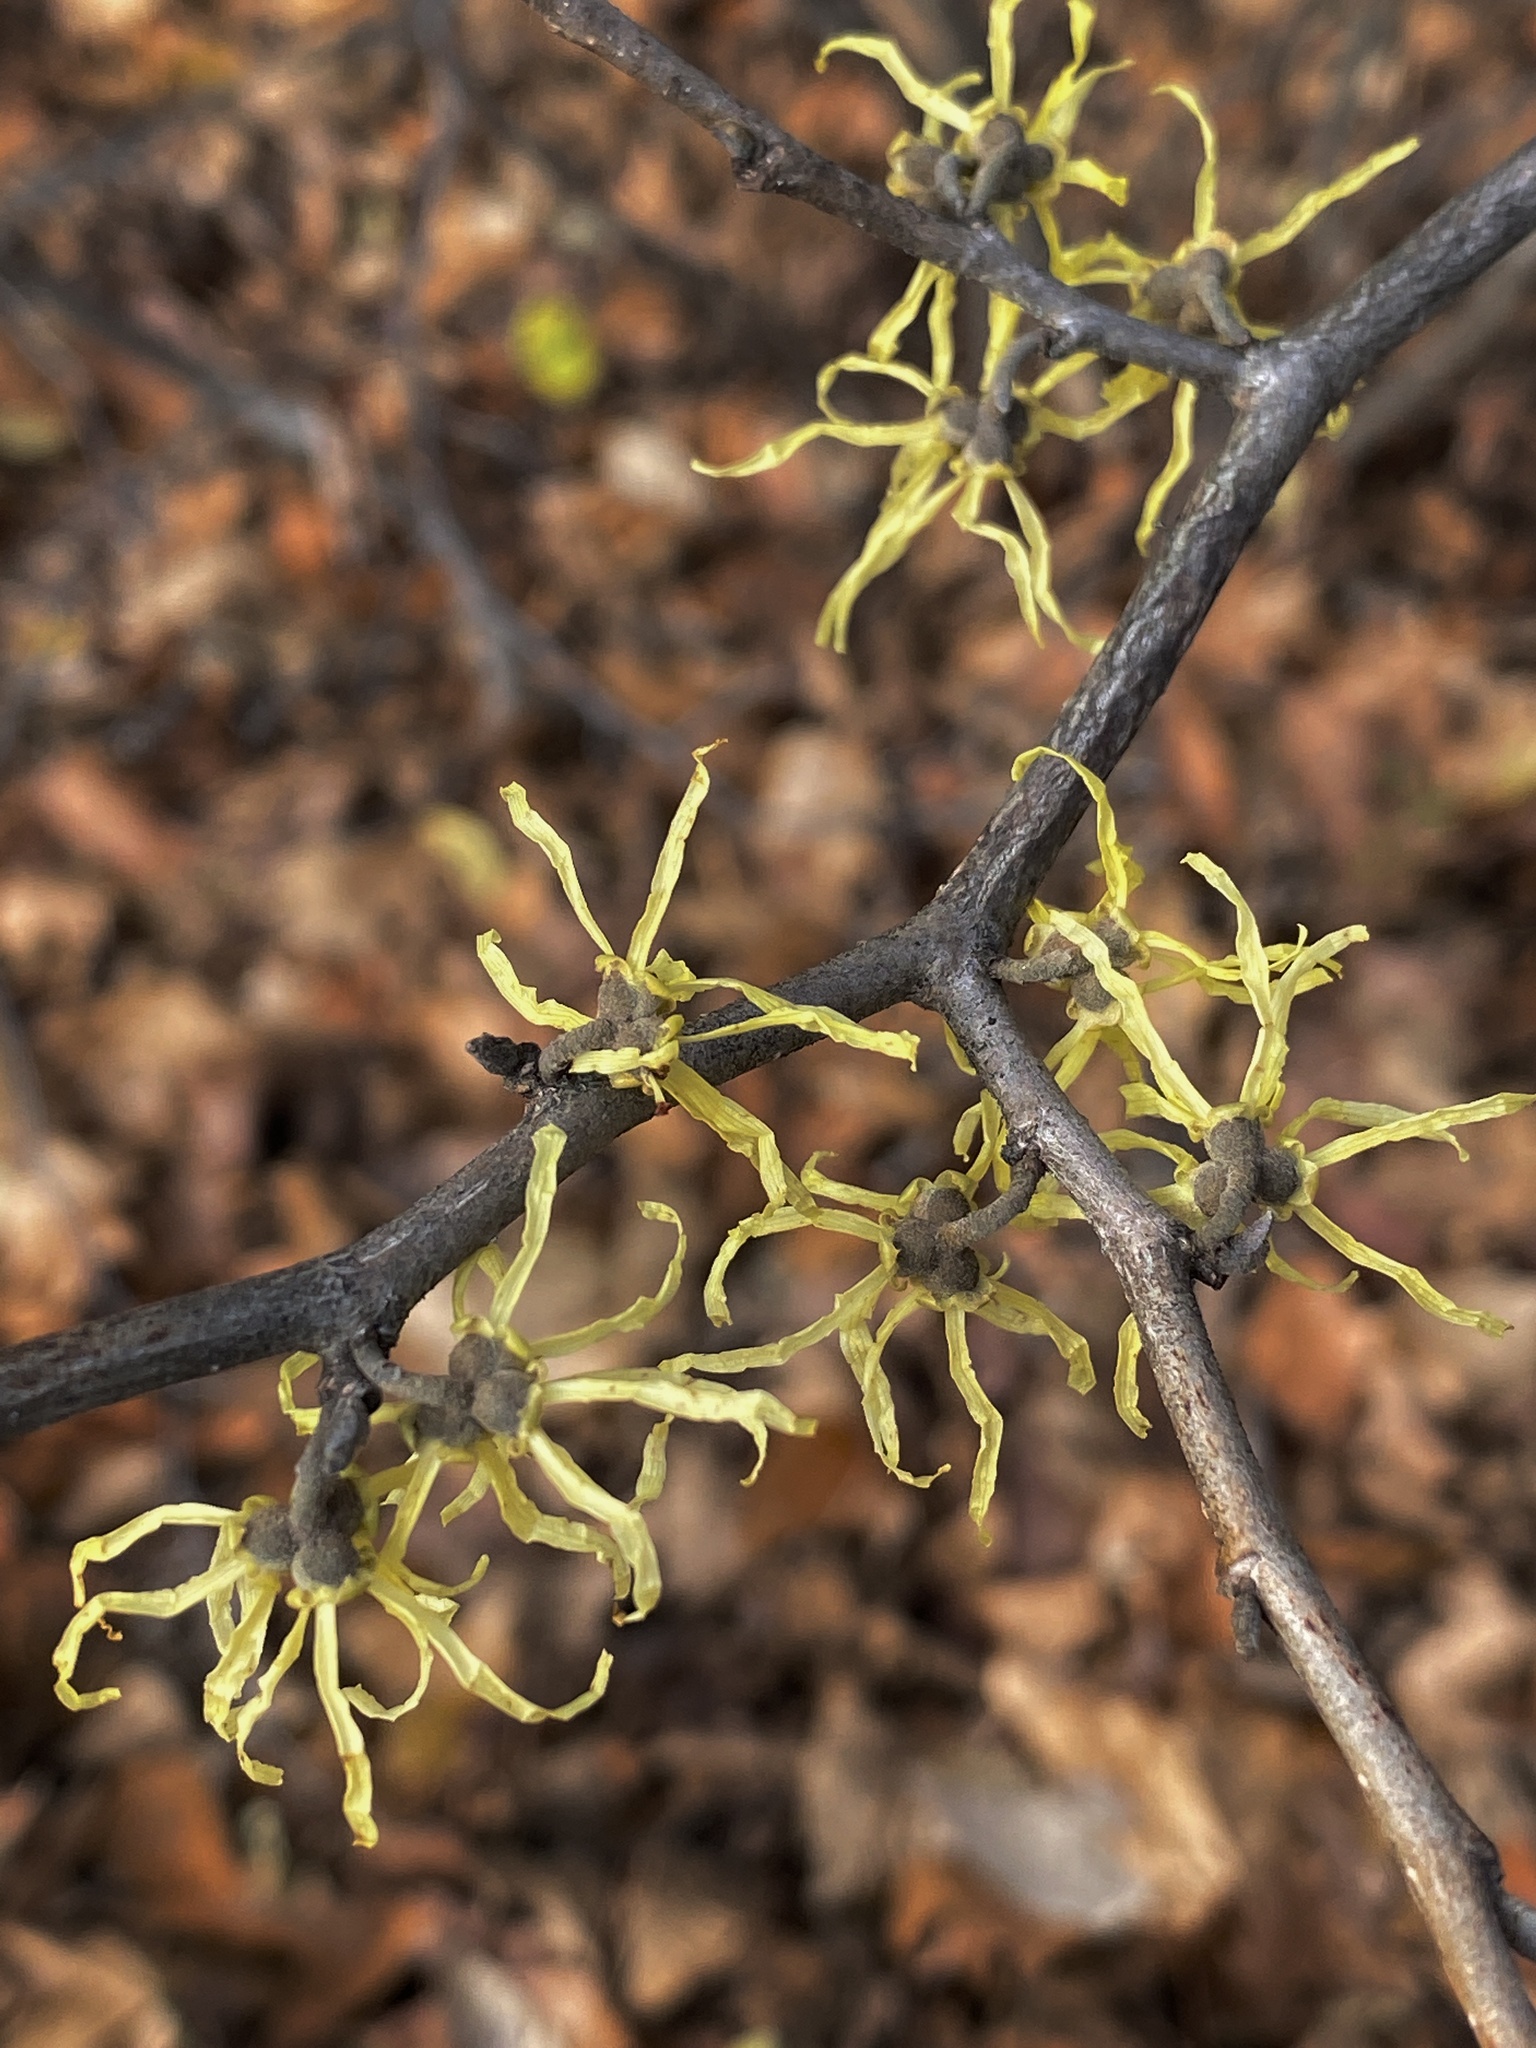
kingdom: Plantae
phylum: Tracheophyta
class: Magnoliopsida
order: Saxifragales
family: Hamamelidaceae
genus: Hamamelis
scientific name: Hamamelis virginiana
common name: Witch-hazel
